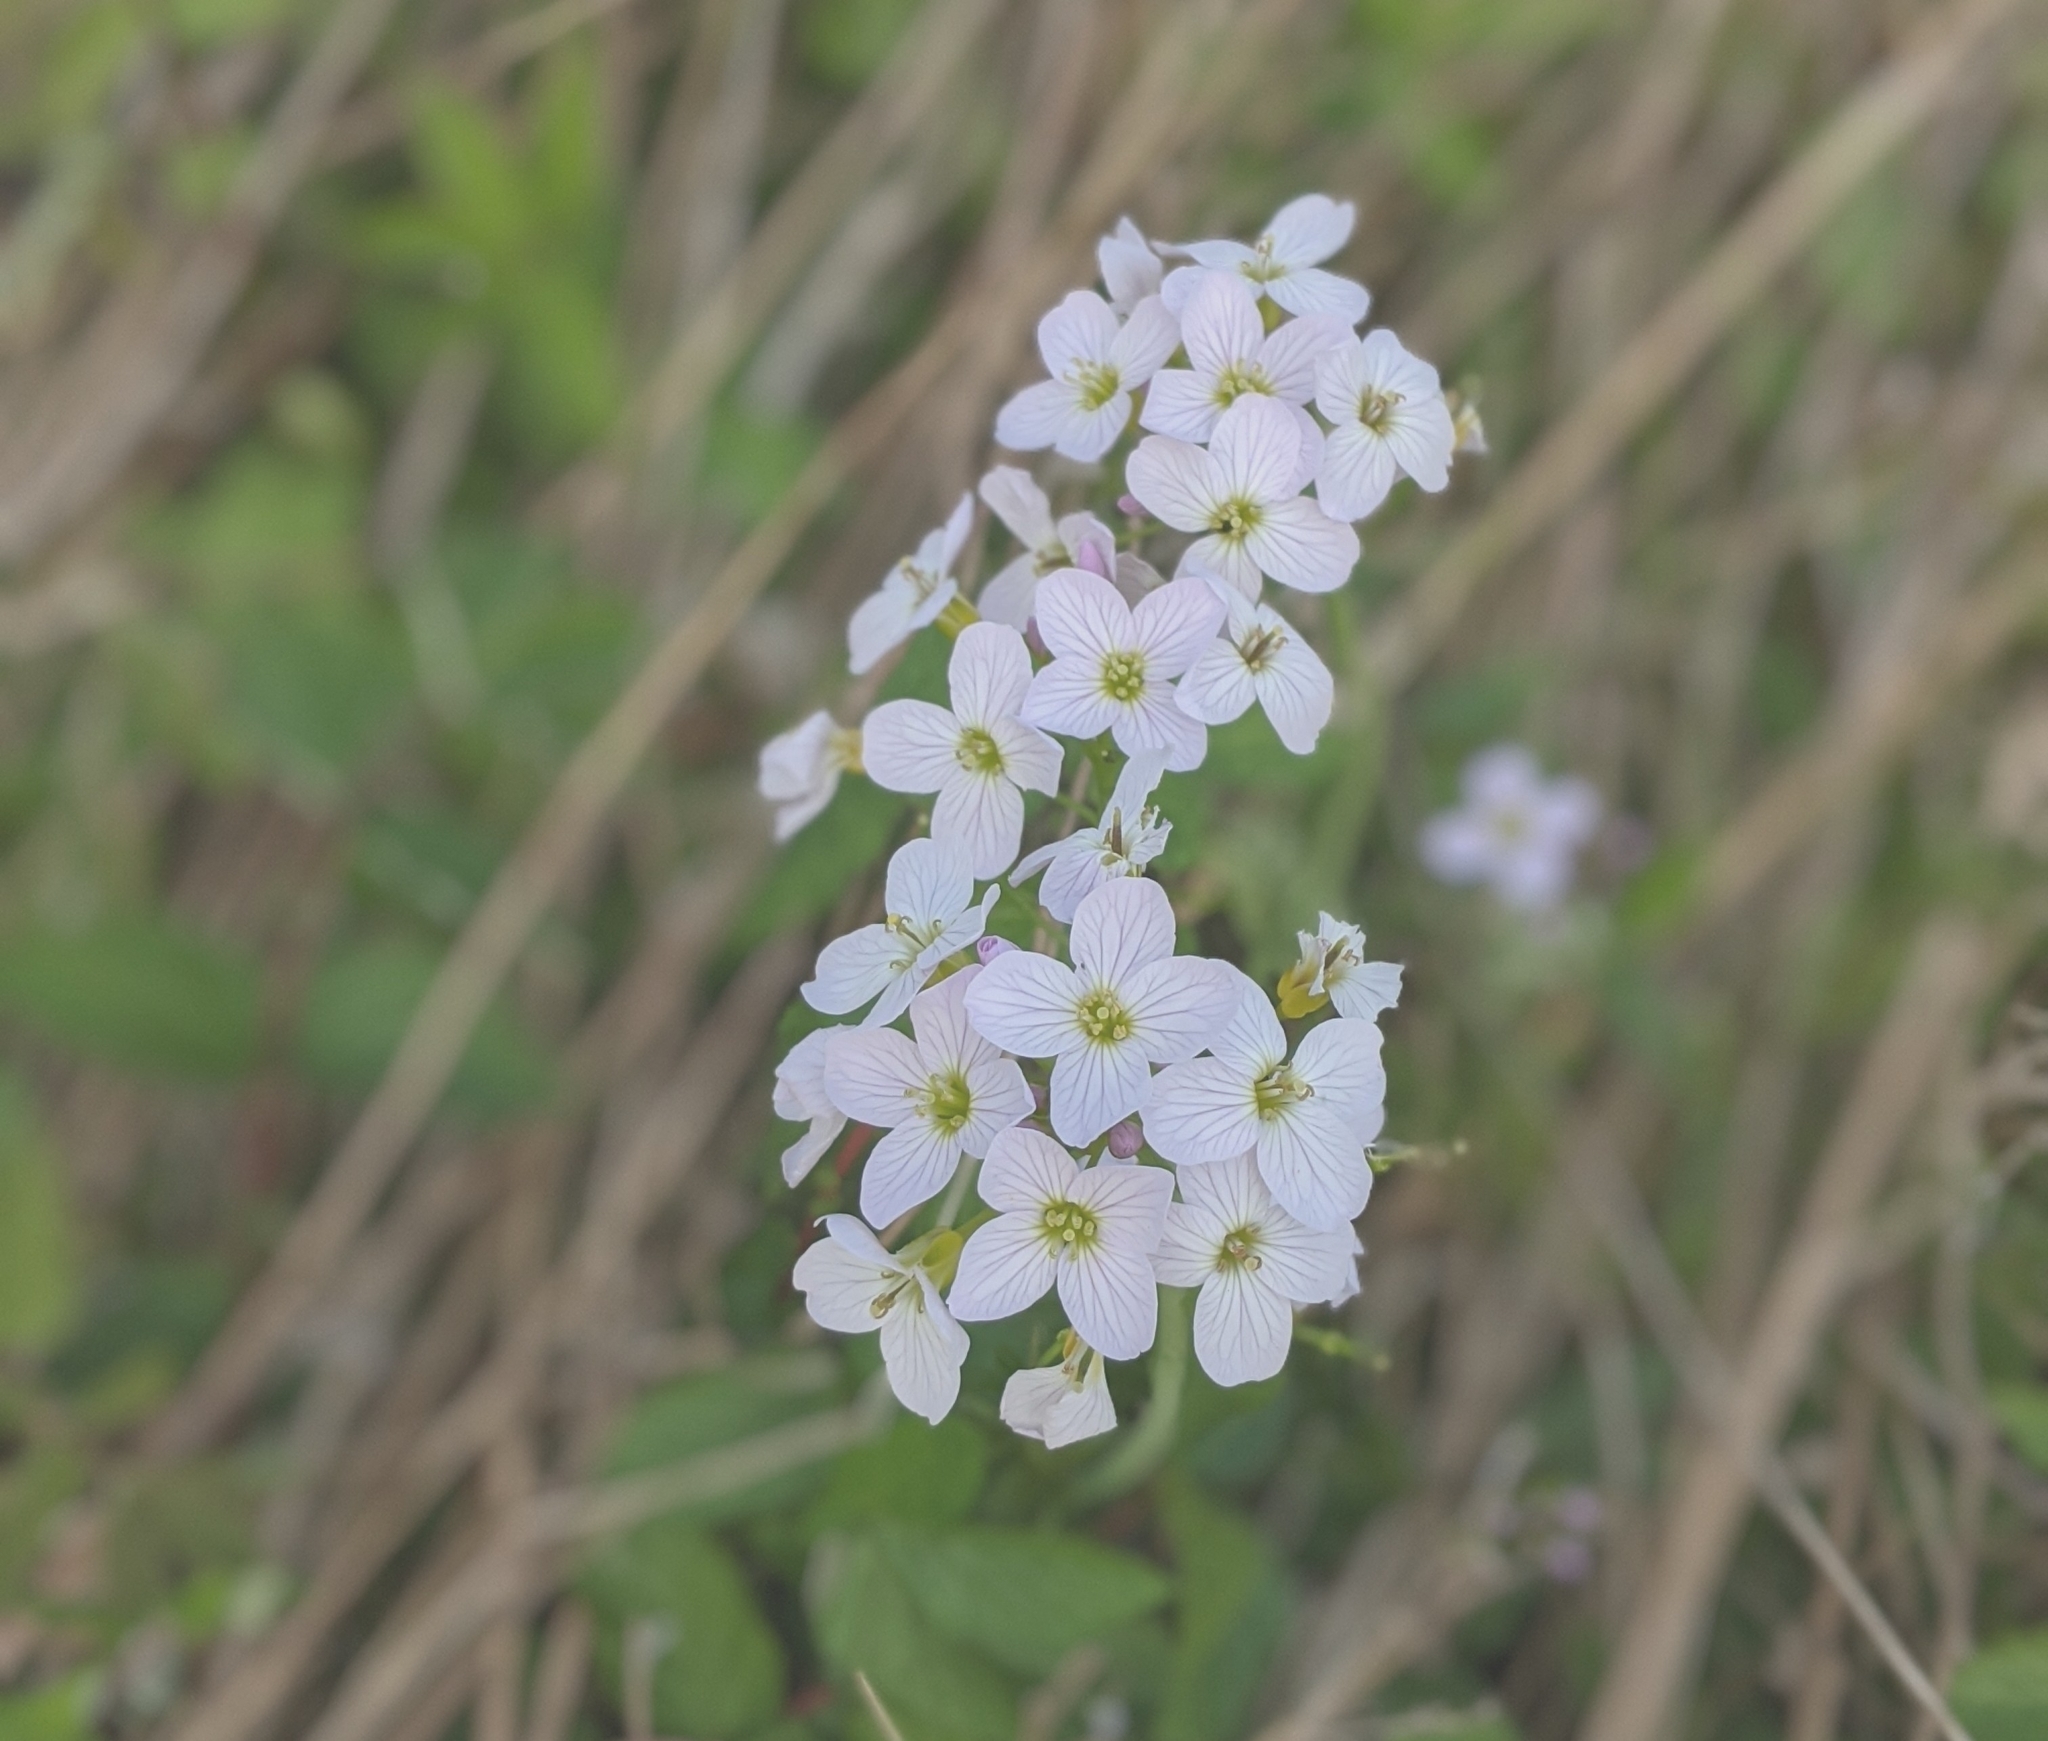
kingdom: Plantae
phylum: Tracheophyta
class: Magnoliopsida
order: Brassicales
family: Brassicaceae
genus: Cardamine
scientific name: Cardamine pratensis
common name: Cuckoo flower
